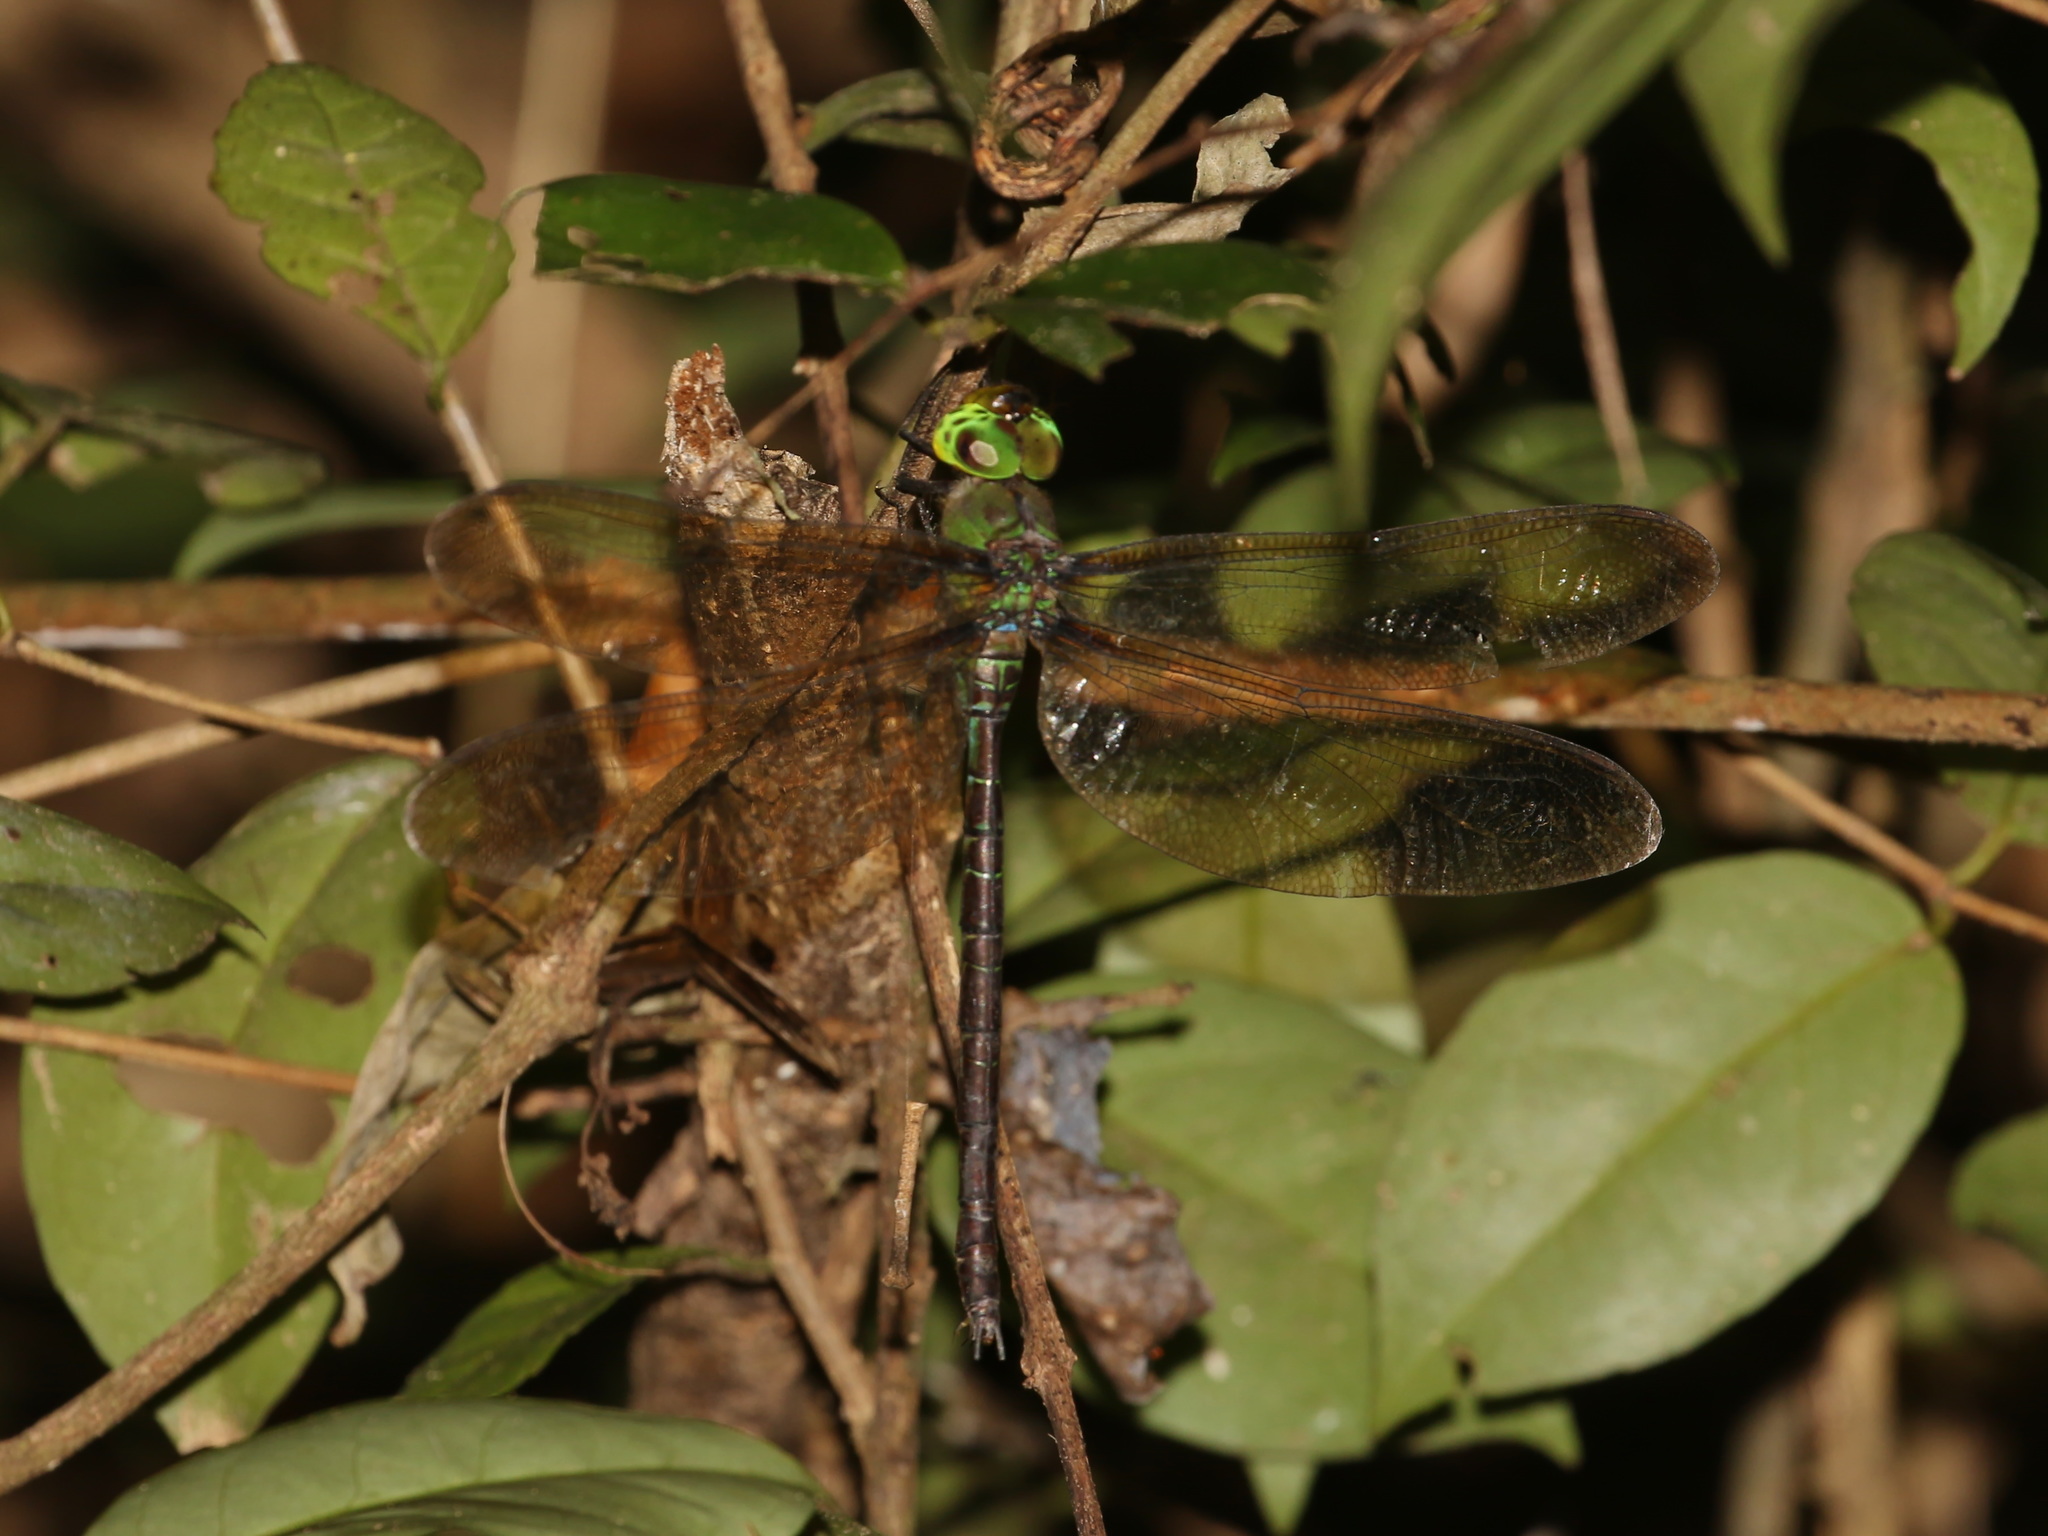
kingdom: Animalia
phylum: Arthropoda
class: Insecta
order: Odonata
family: Aeshnidae
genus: Gynacantha
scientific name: Gynacantha basiguttata
